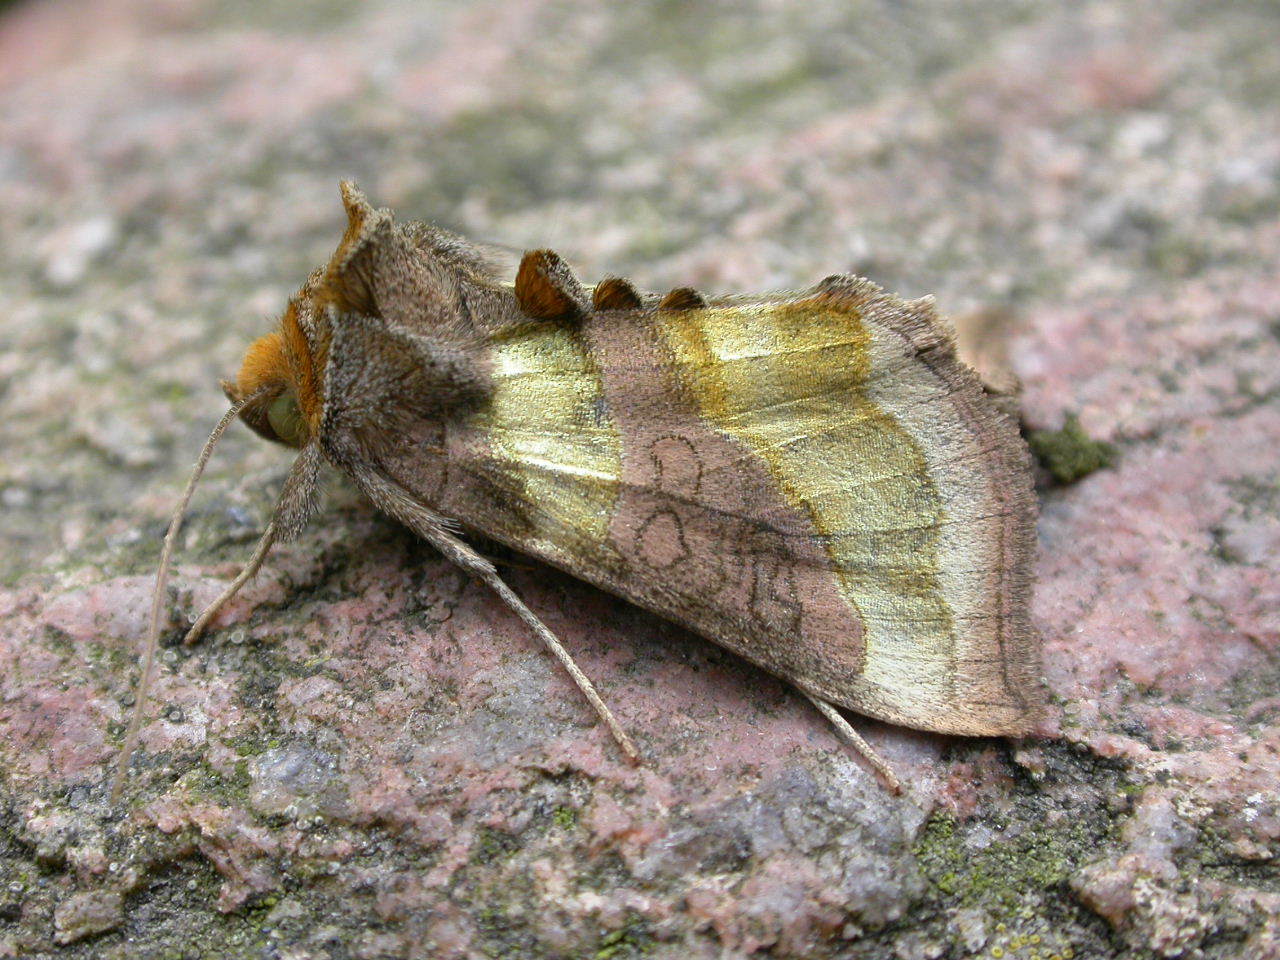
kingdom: Animalia
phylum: Arthropoda
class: Insecta
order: Lepidoptera
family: Noctuidae
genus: Diachrysia
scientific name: Diachrysia chrysitis
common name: Burnished brass
